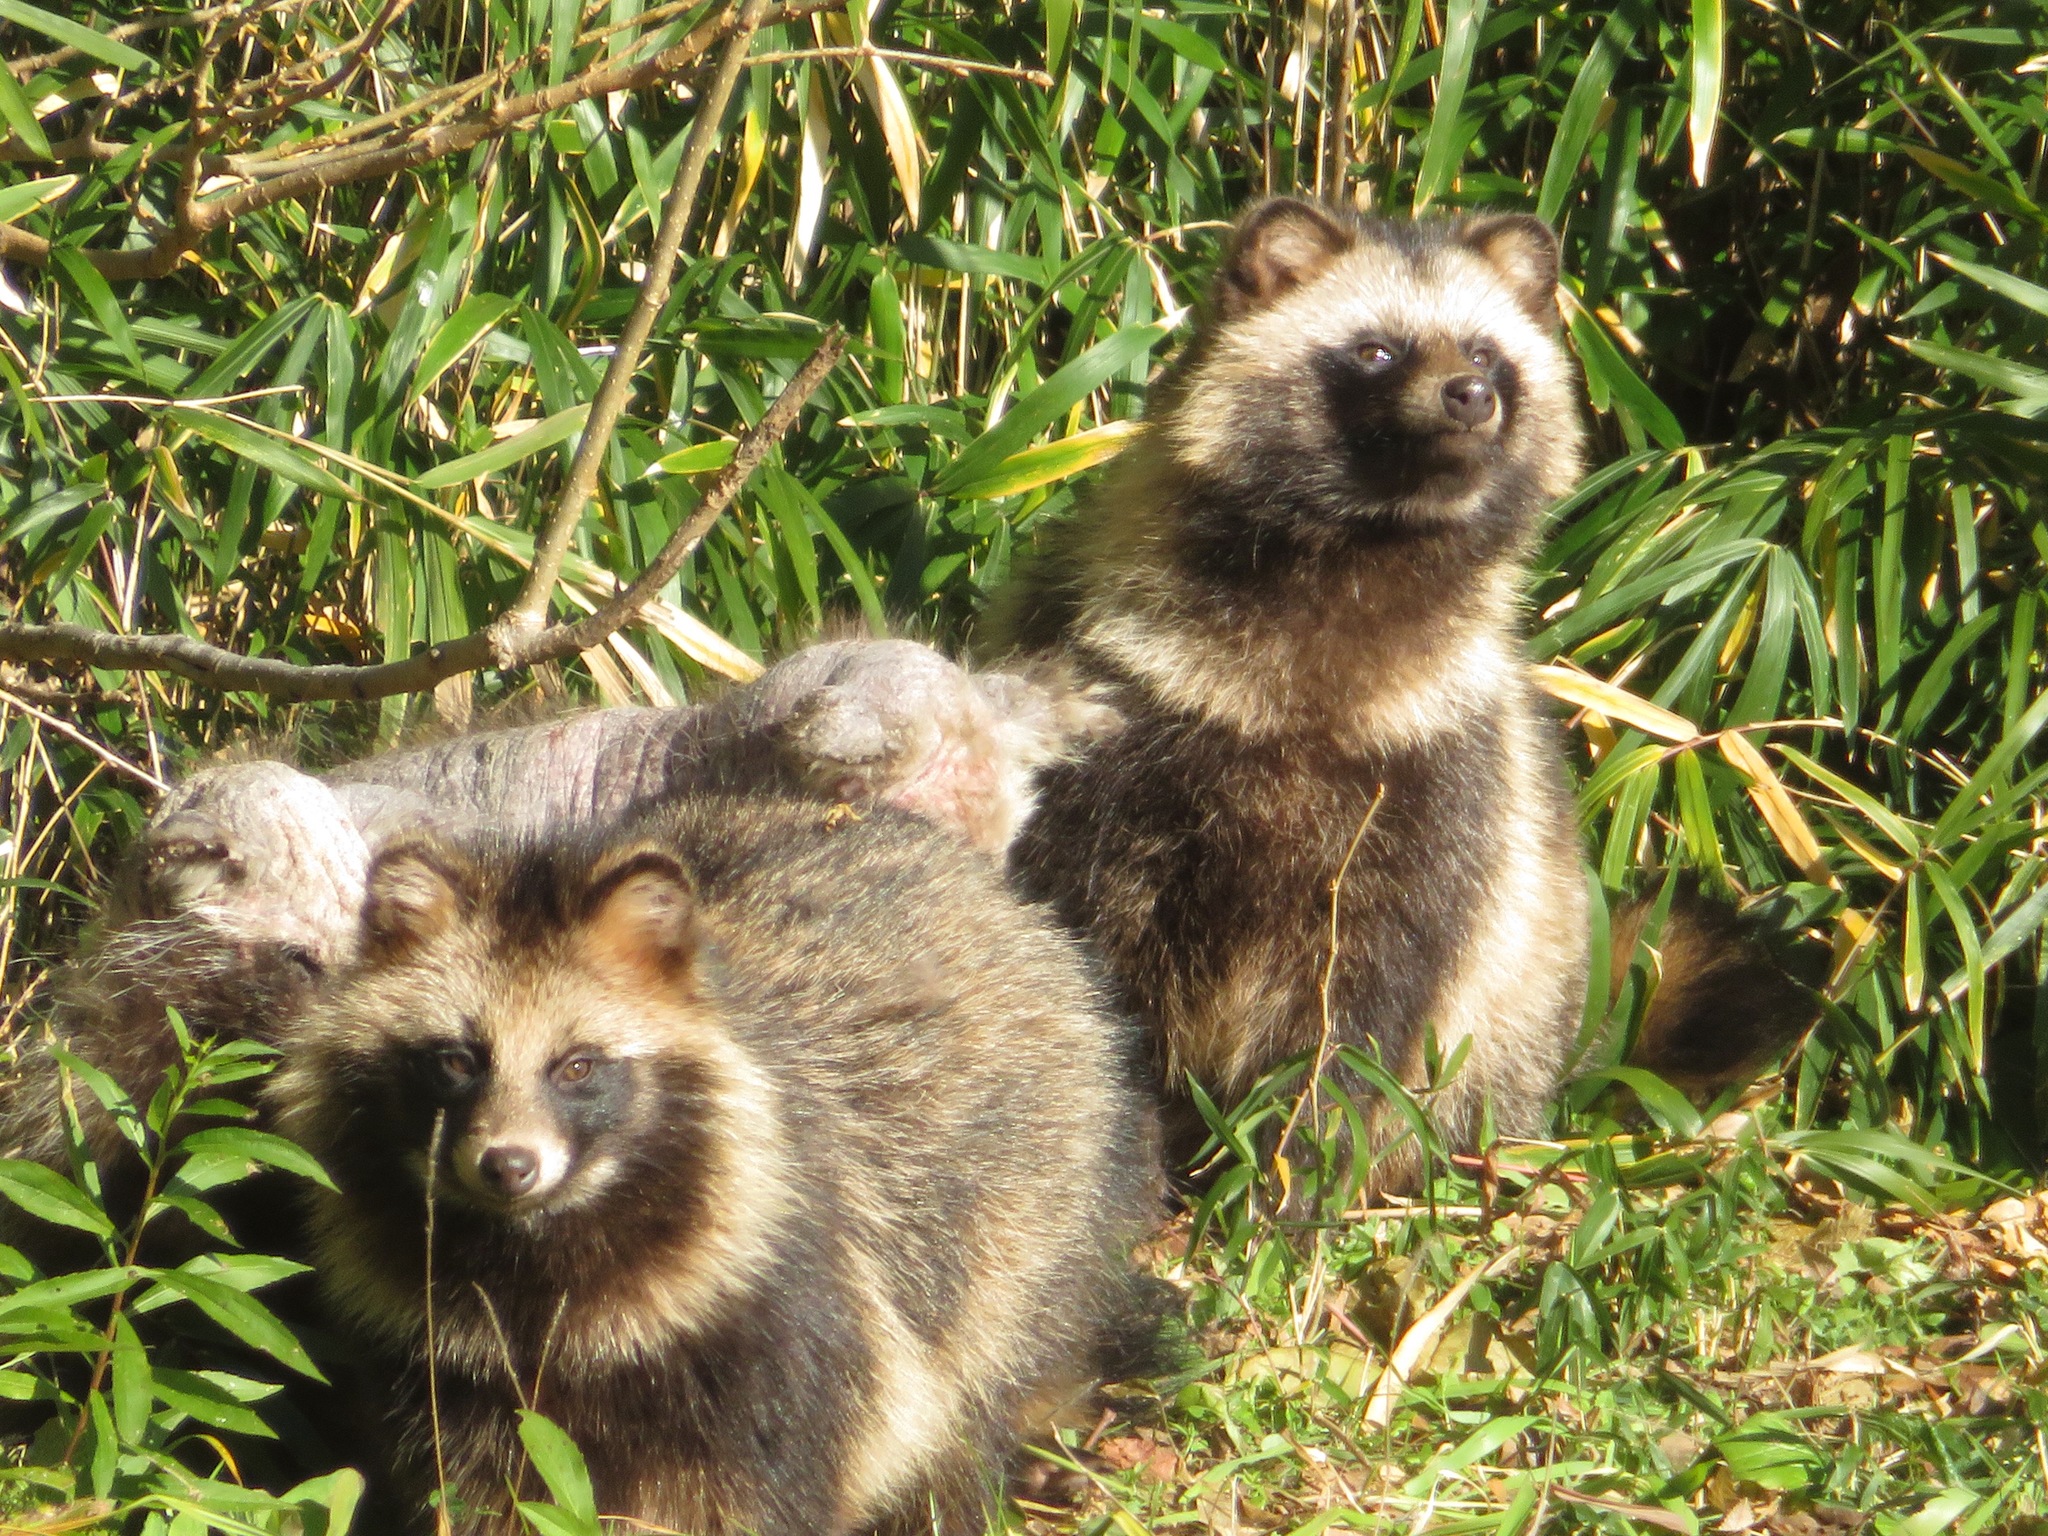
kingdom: Animalia
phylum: Chordata
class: Mammalia
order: Carnivora
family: Canidae
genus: Nyctereutes
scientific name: Nyctereutes
